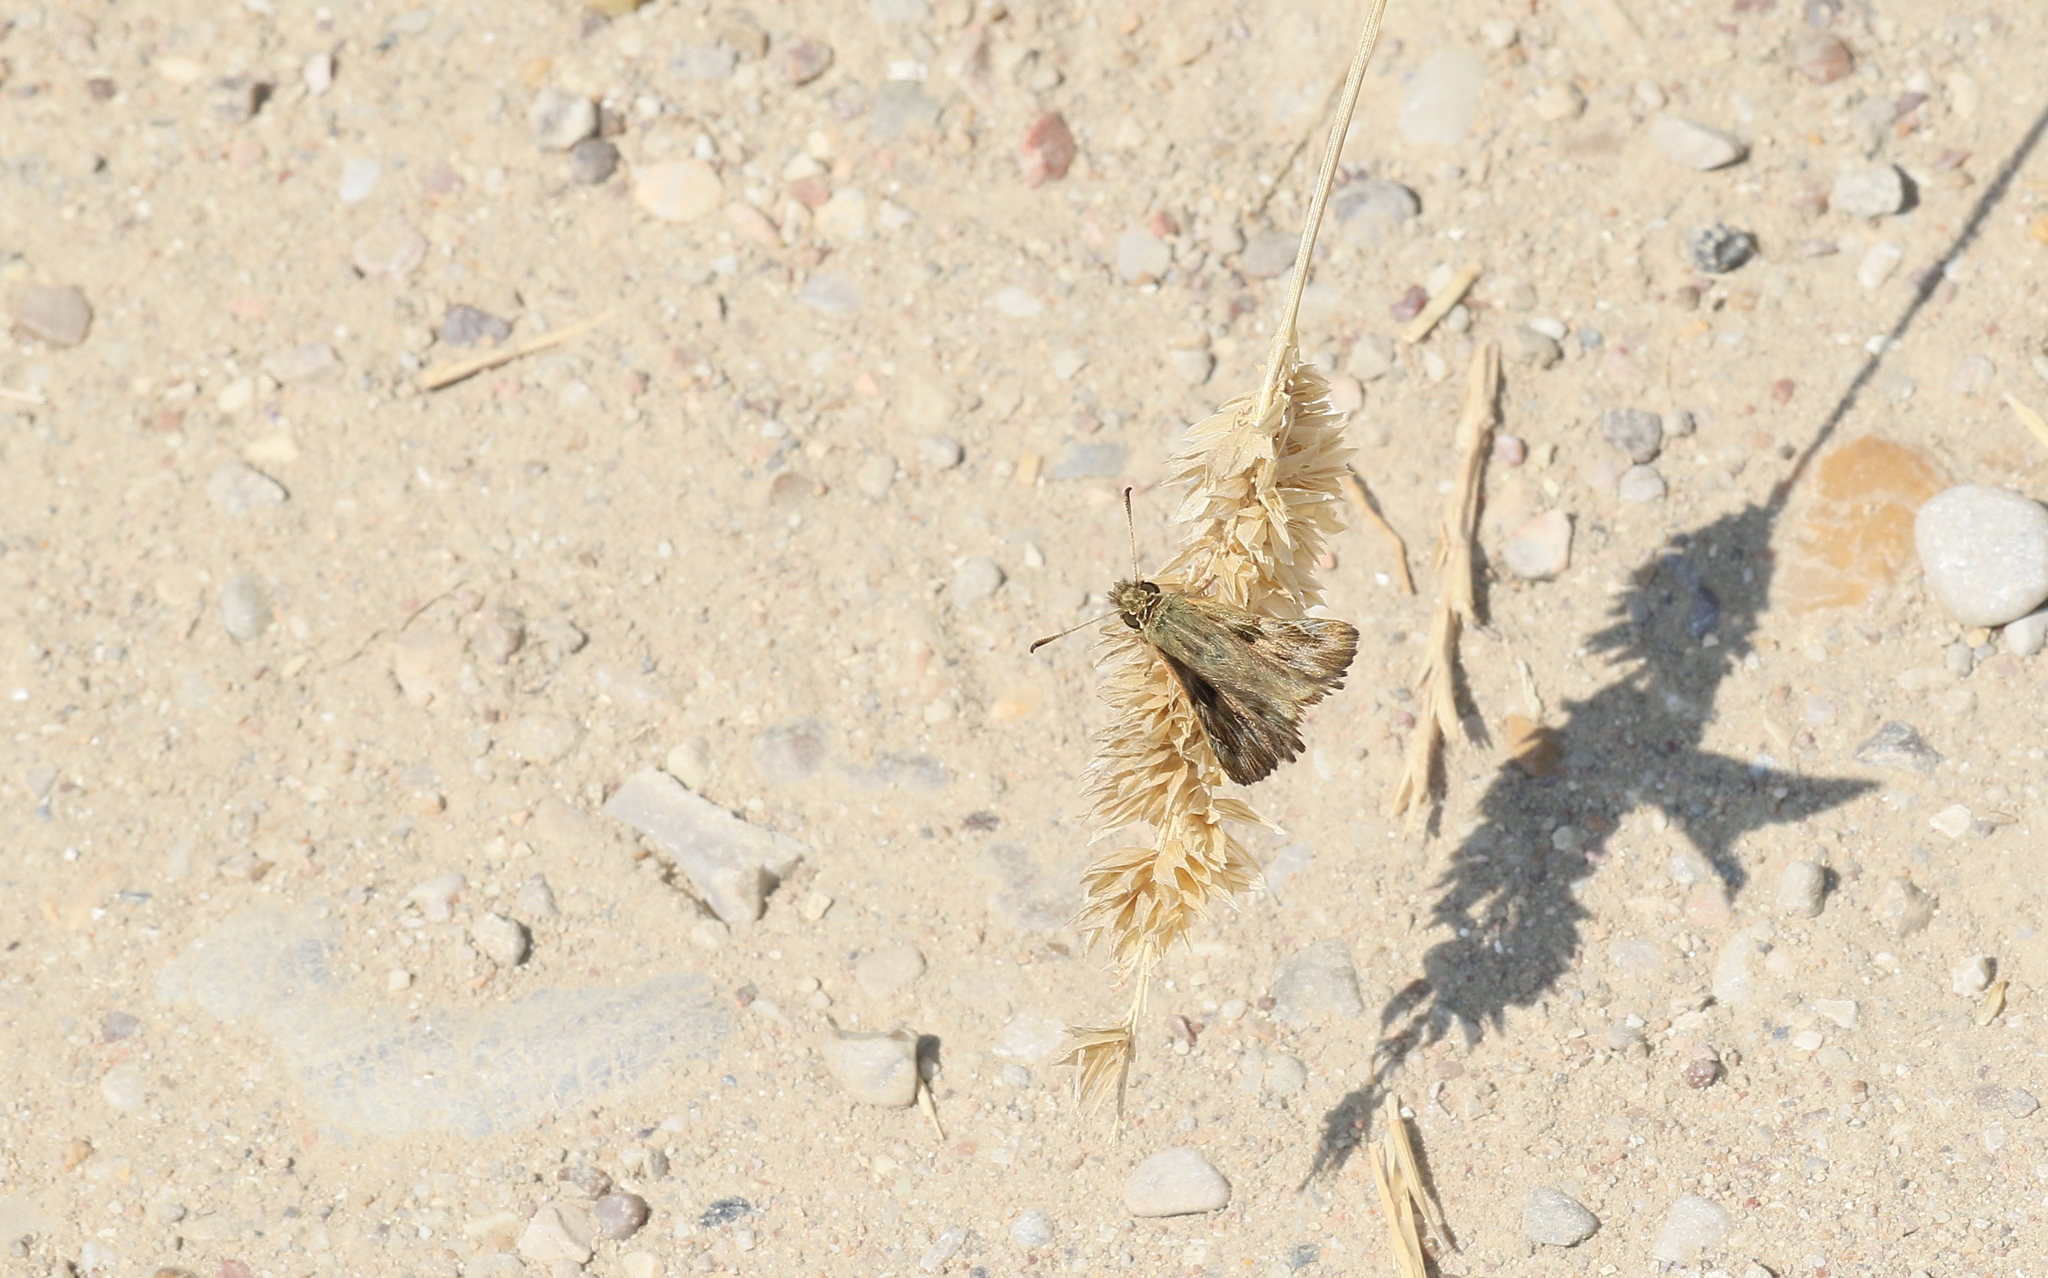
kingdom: Animalia
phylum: Arthropoda
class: Insecta
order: Lepidoptera
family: Hesperiidae
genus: Carcharodus
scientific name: Carcharodus alceae
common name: Mallow skipper
